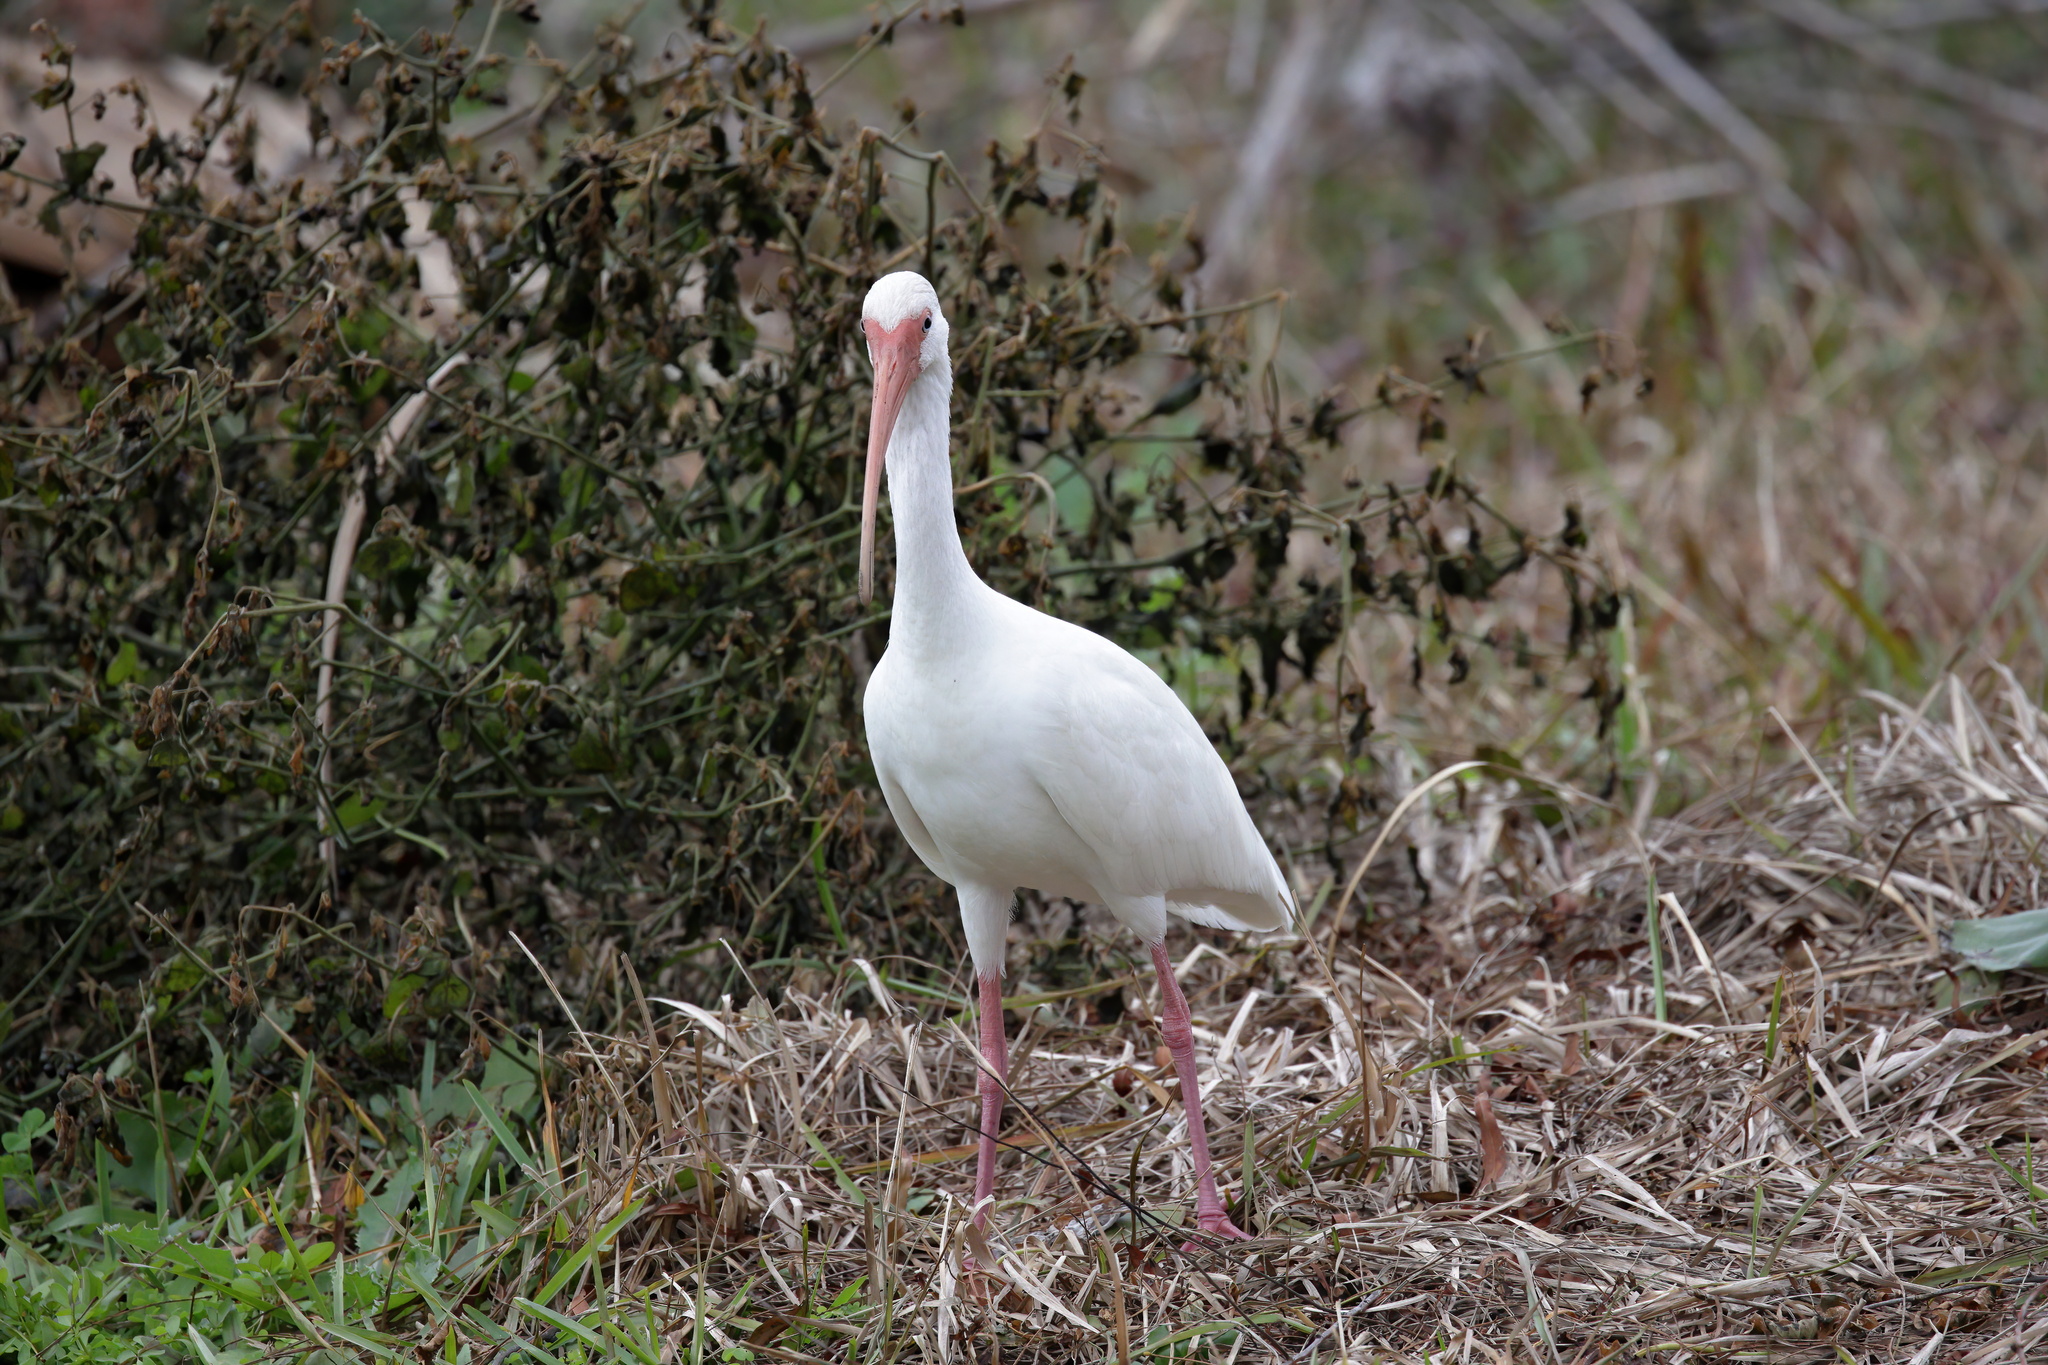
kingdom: Animalia
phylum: Chordata
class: Aves
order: Pelecaniformes
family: Threskiornithidae
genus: Eudocimus
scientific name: Eudocimus albus
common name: White ibis
